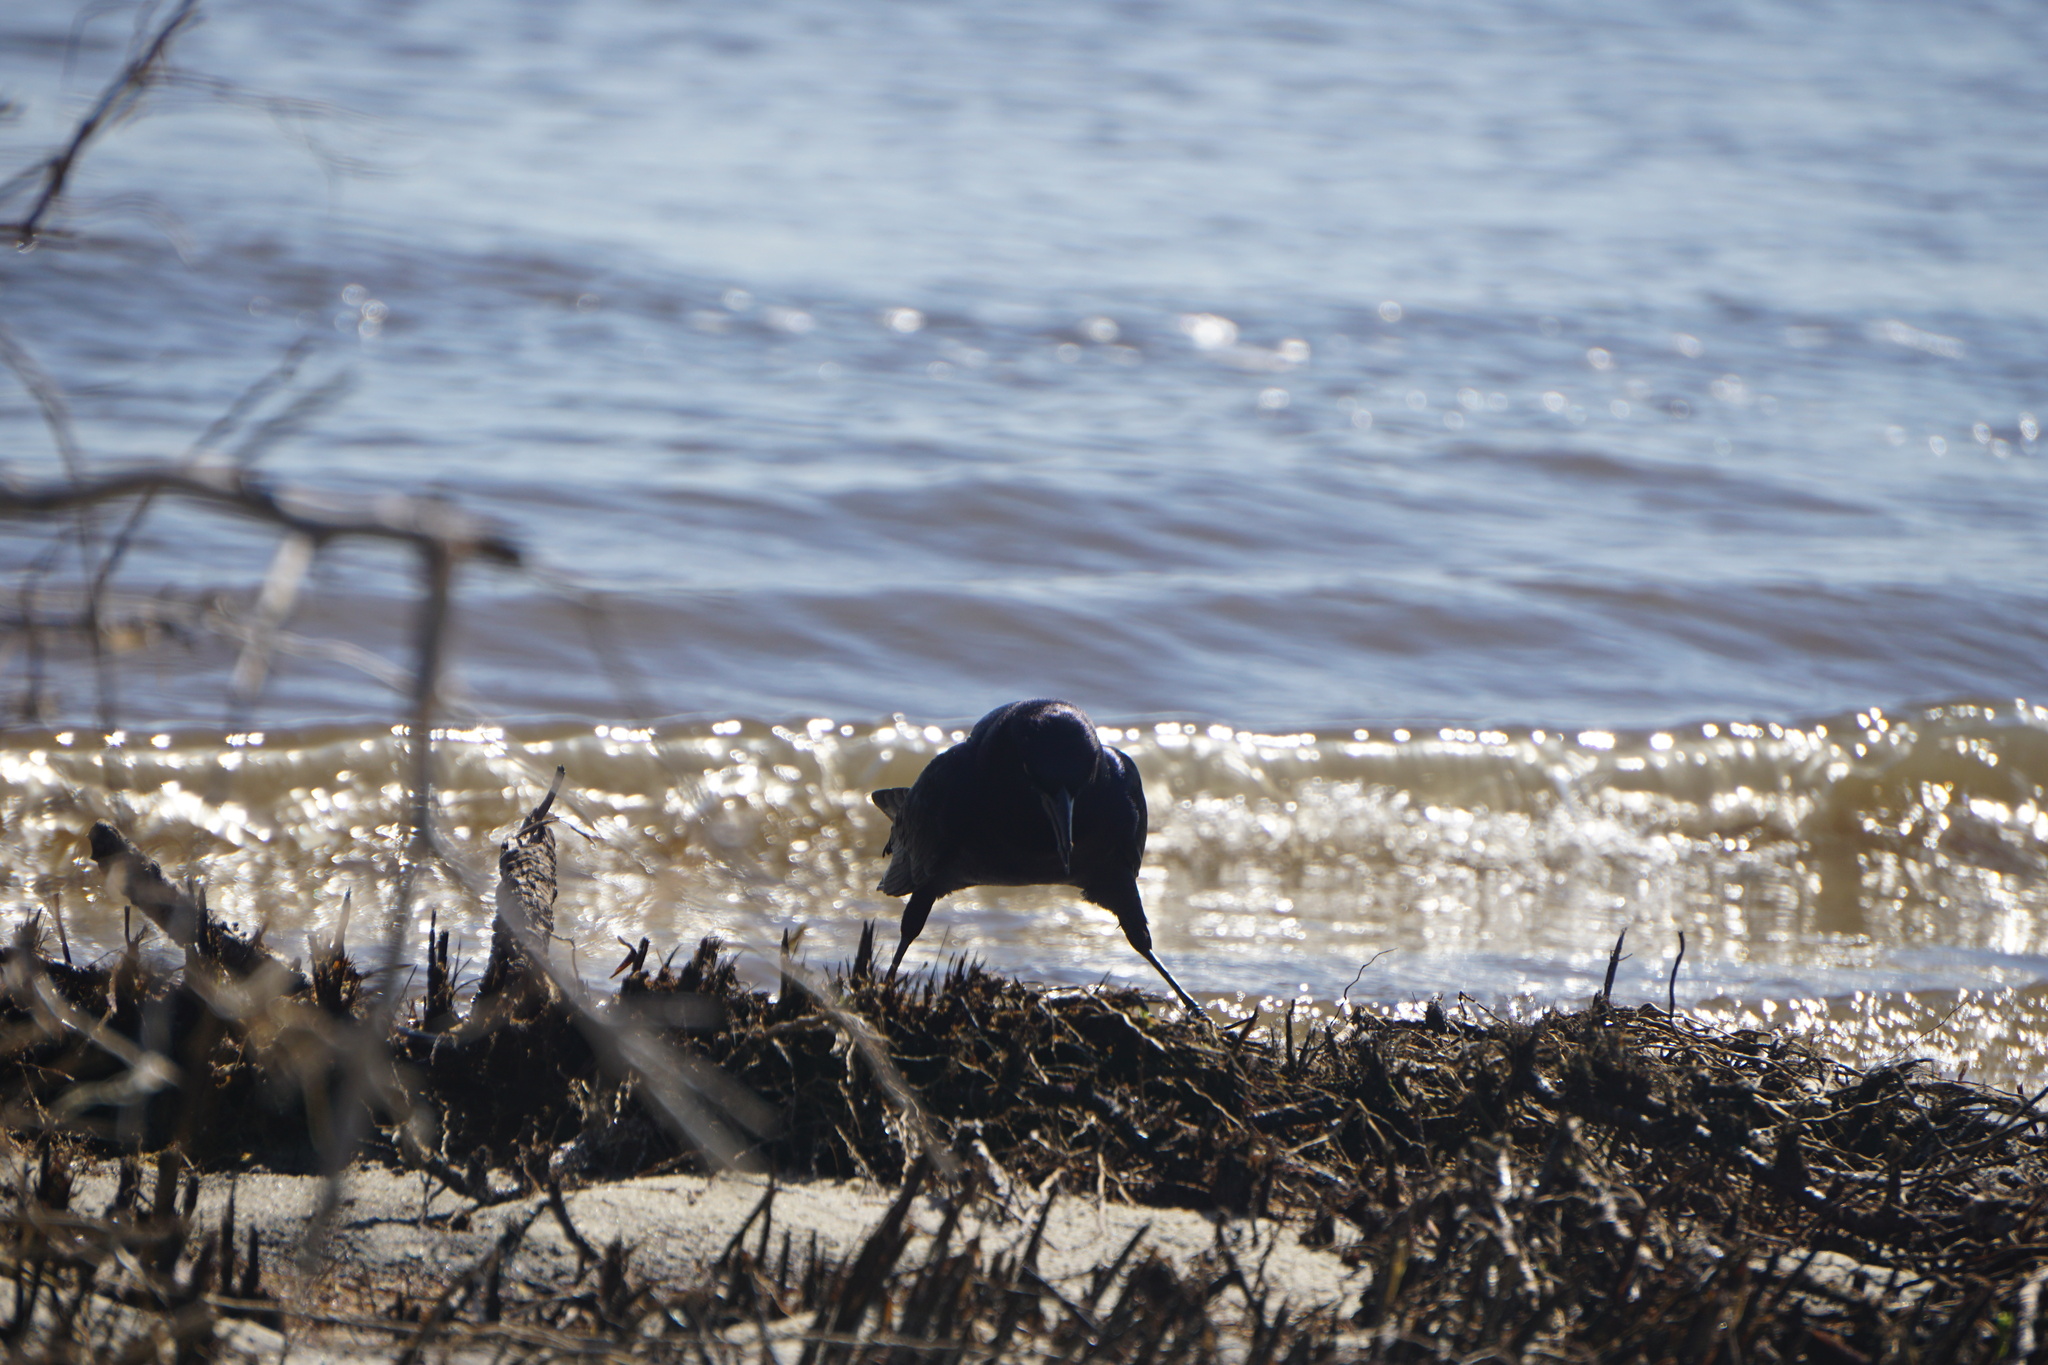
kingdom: Animalia
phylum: Chordata
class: Aves
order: Passeriformes
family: Icteridae
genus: Quiscalus
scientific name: Quiscalus major
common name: Boat-tailed grackle
